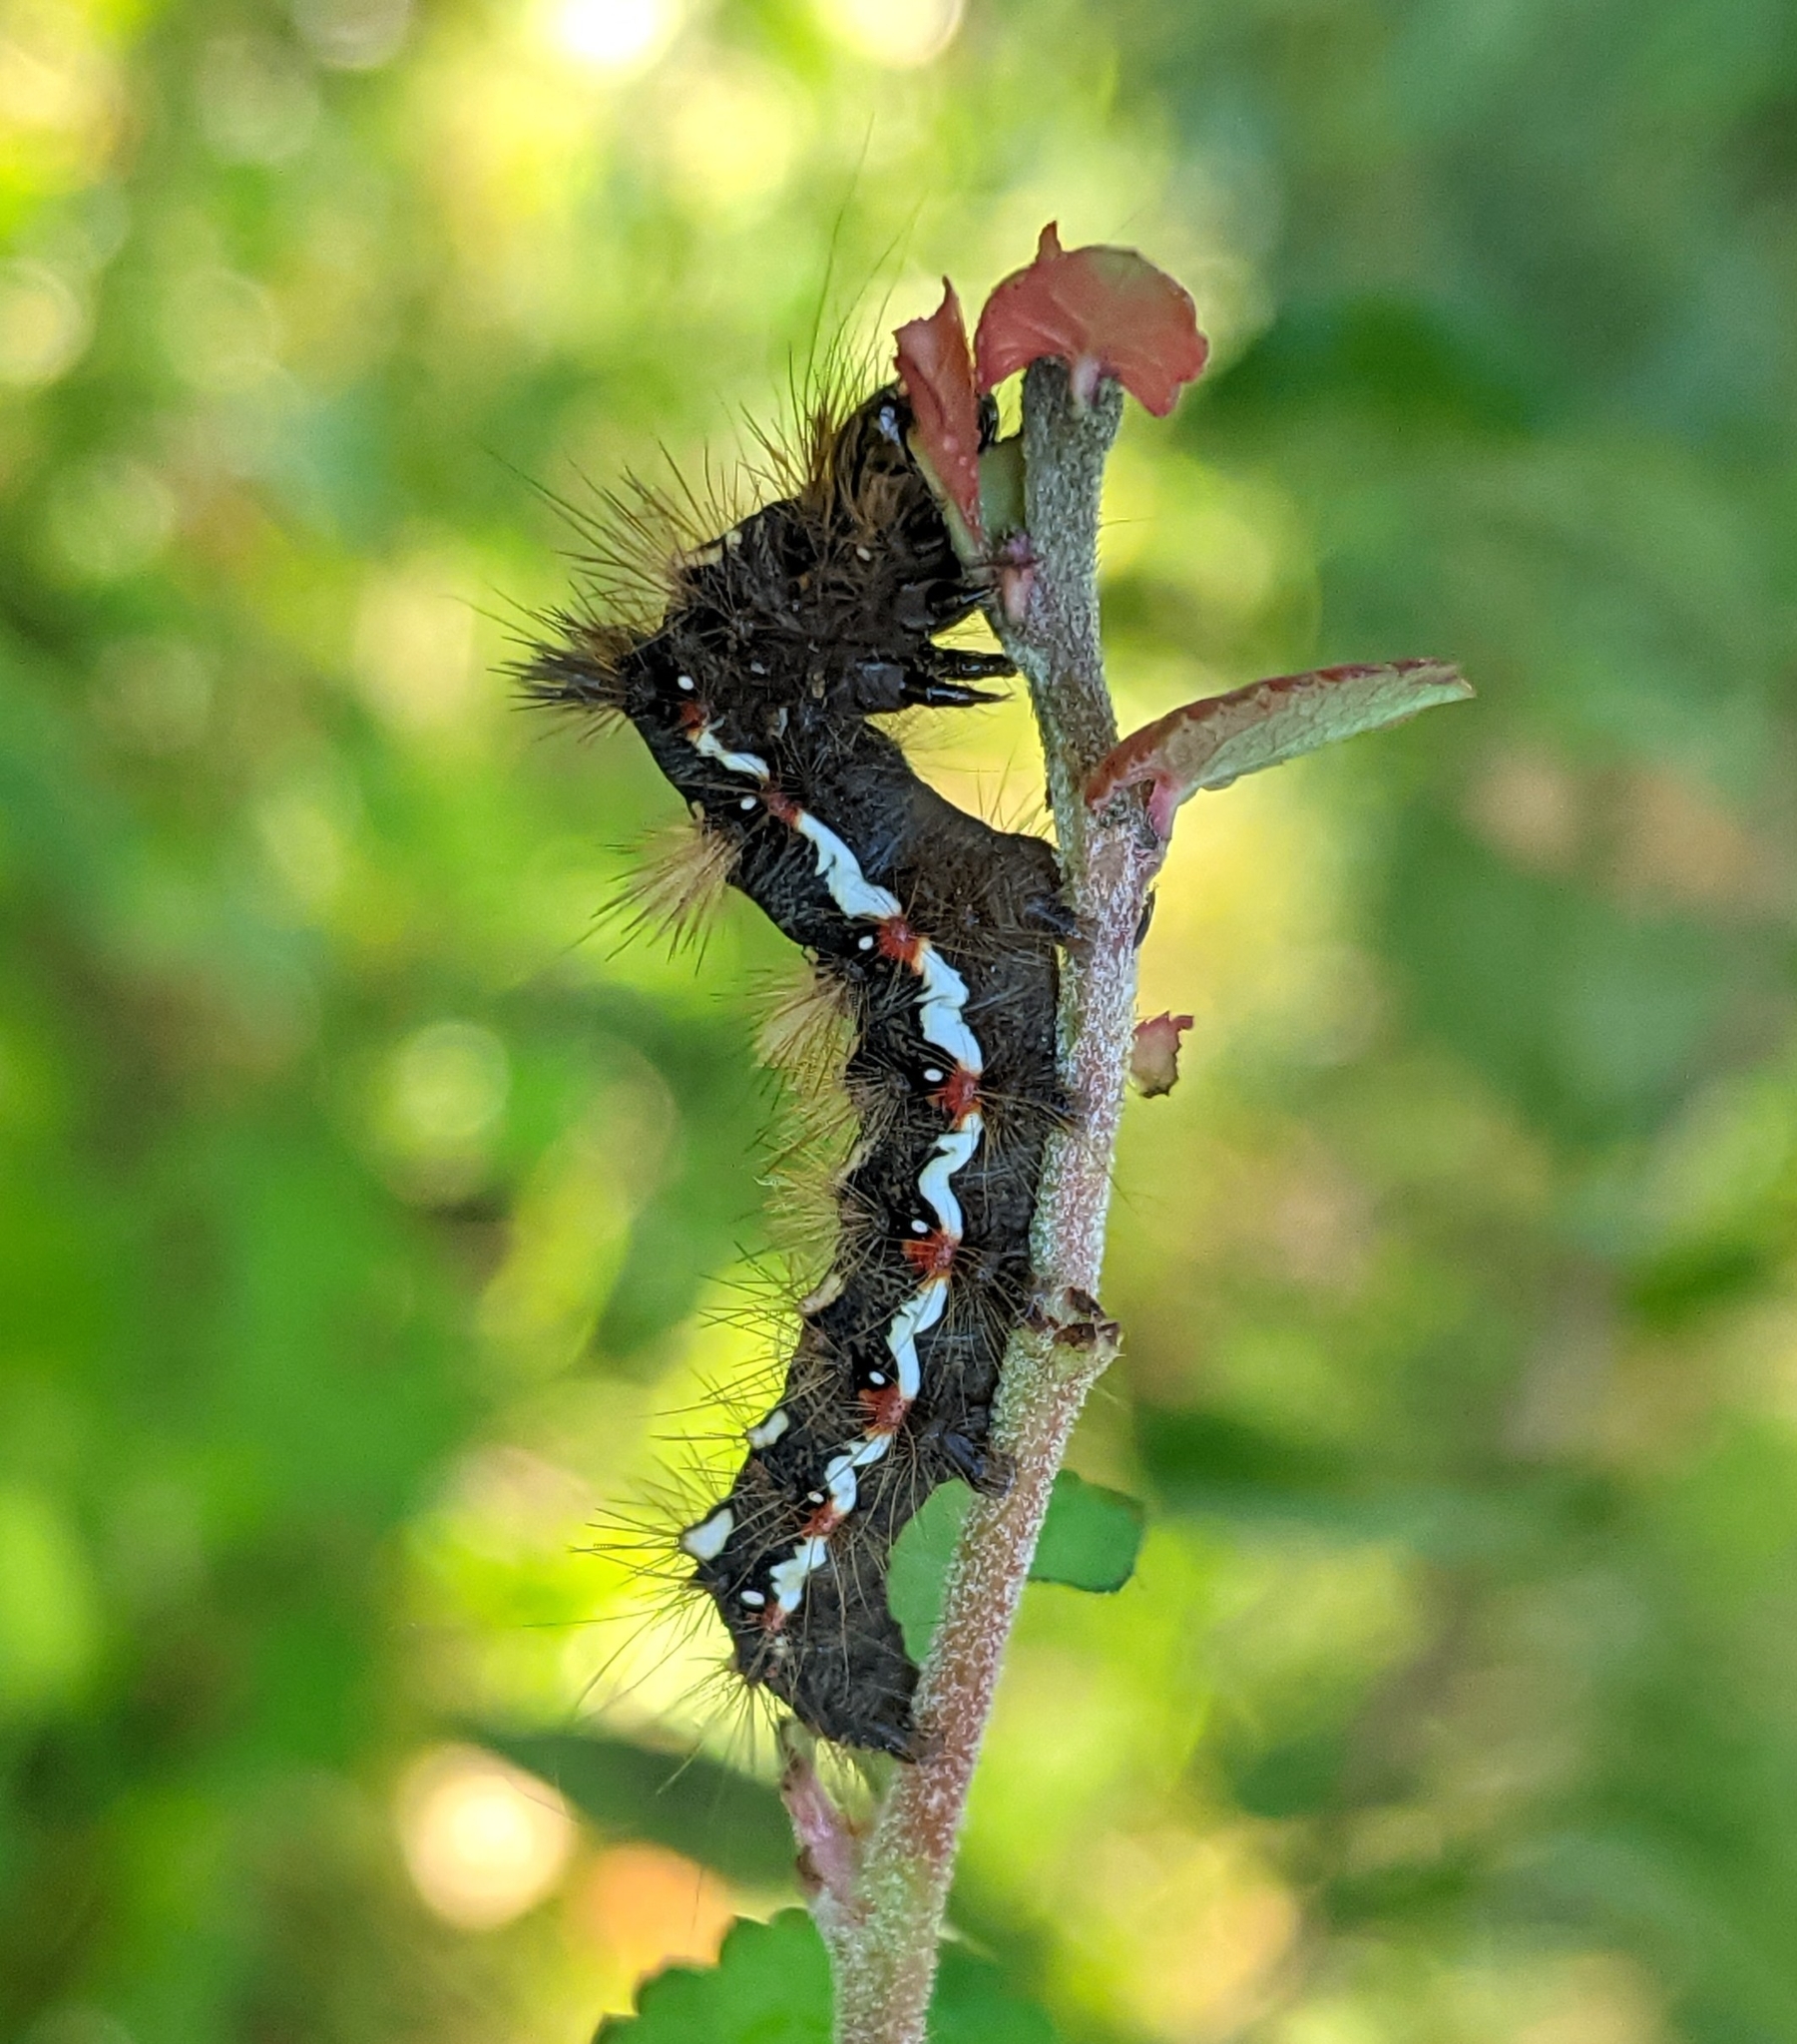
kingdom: Animalia
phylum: Arthropoda
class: Insecta
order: Lepidoptera
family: Noctuidae
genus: Acronicta
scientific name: Acronicta rumicis
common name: Knot grass
